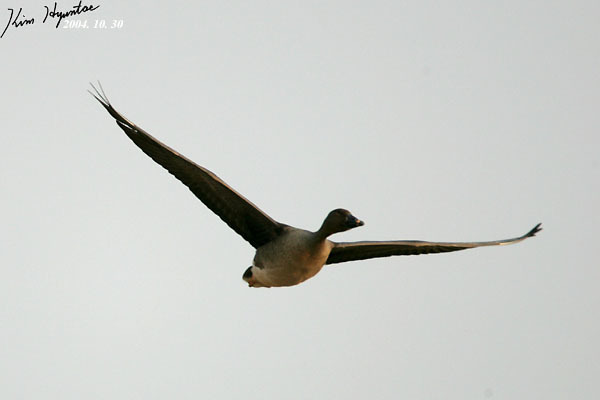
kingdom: Animalia
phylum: Chordata
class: Aves
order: Anseriformes
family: Anatidae
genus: Anser
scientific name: Anser fabalis
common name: Bean goose
